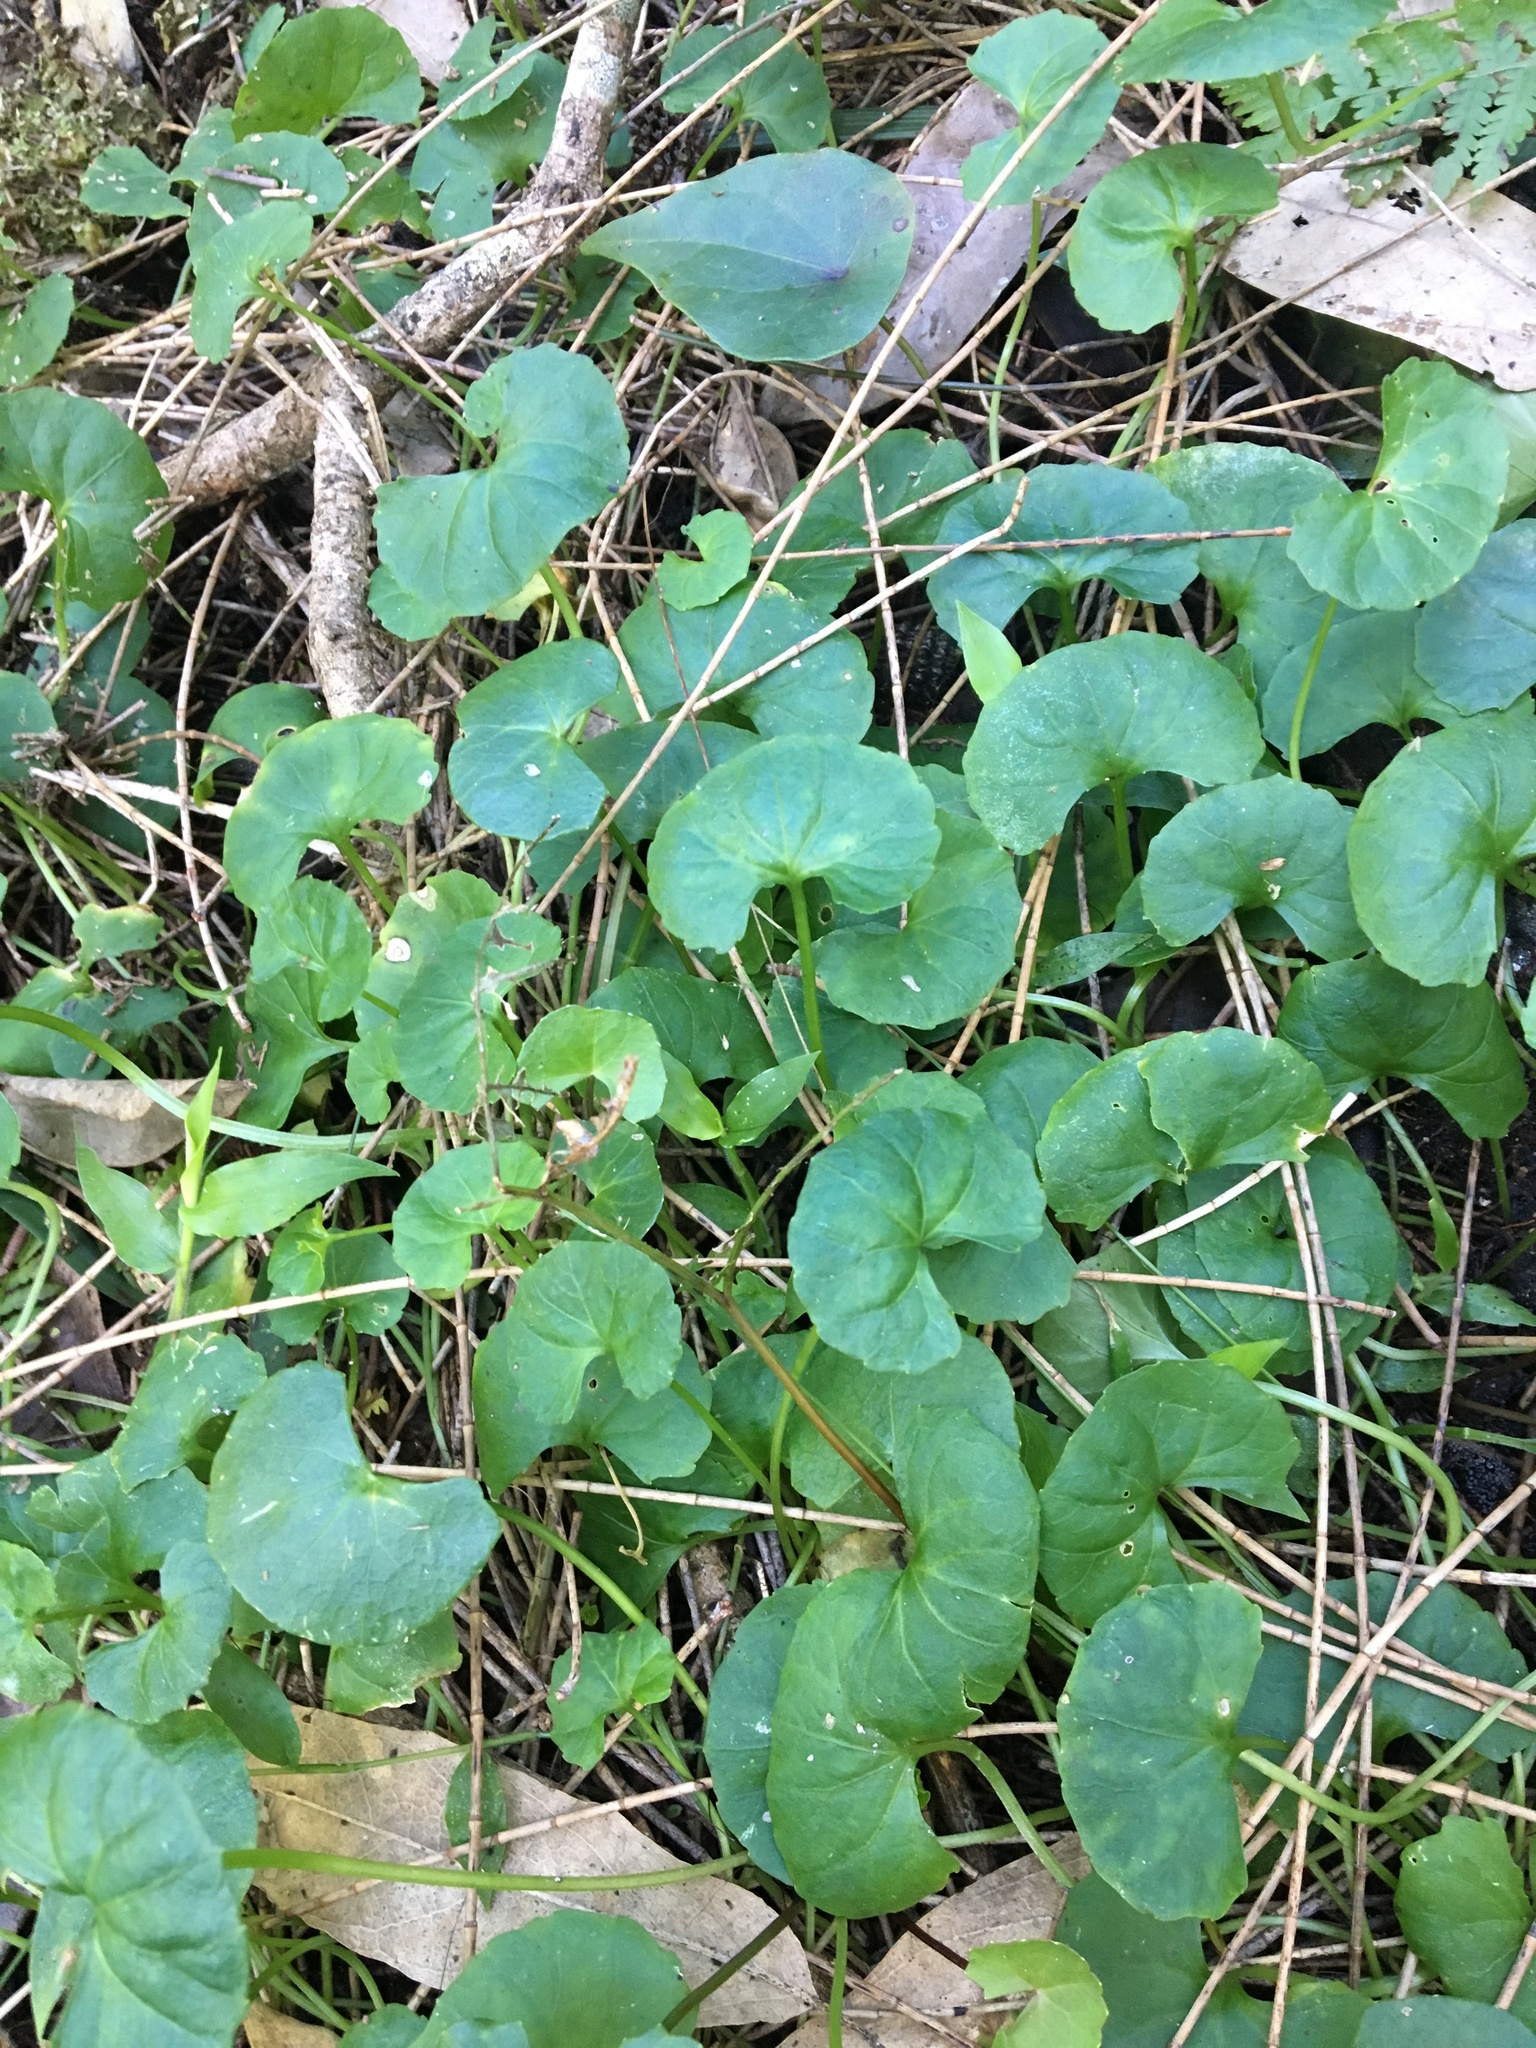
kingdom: Plantae
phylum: Tracheophyta
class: Magnoliopsida
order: Apiales
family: Apiaceae
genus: Centella
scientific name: Centella asiatica
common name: Spadeleaf
